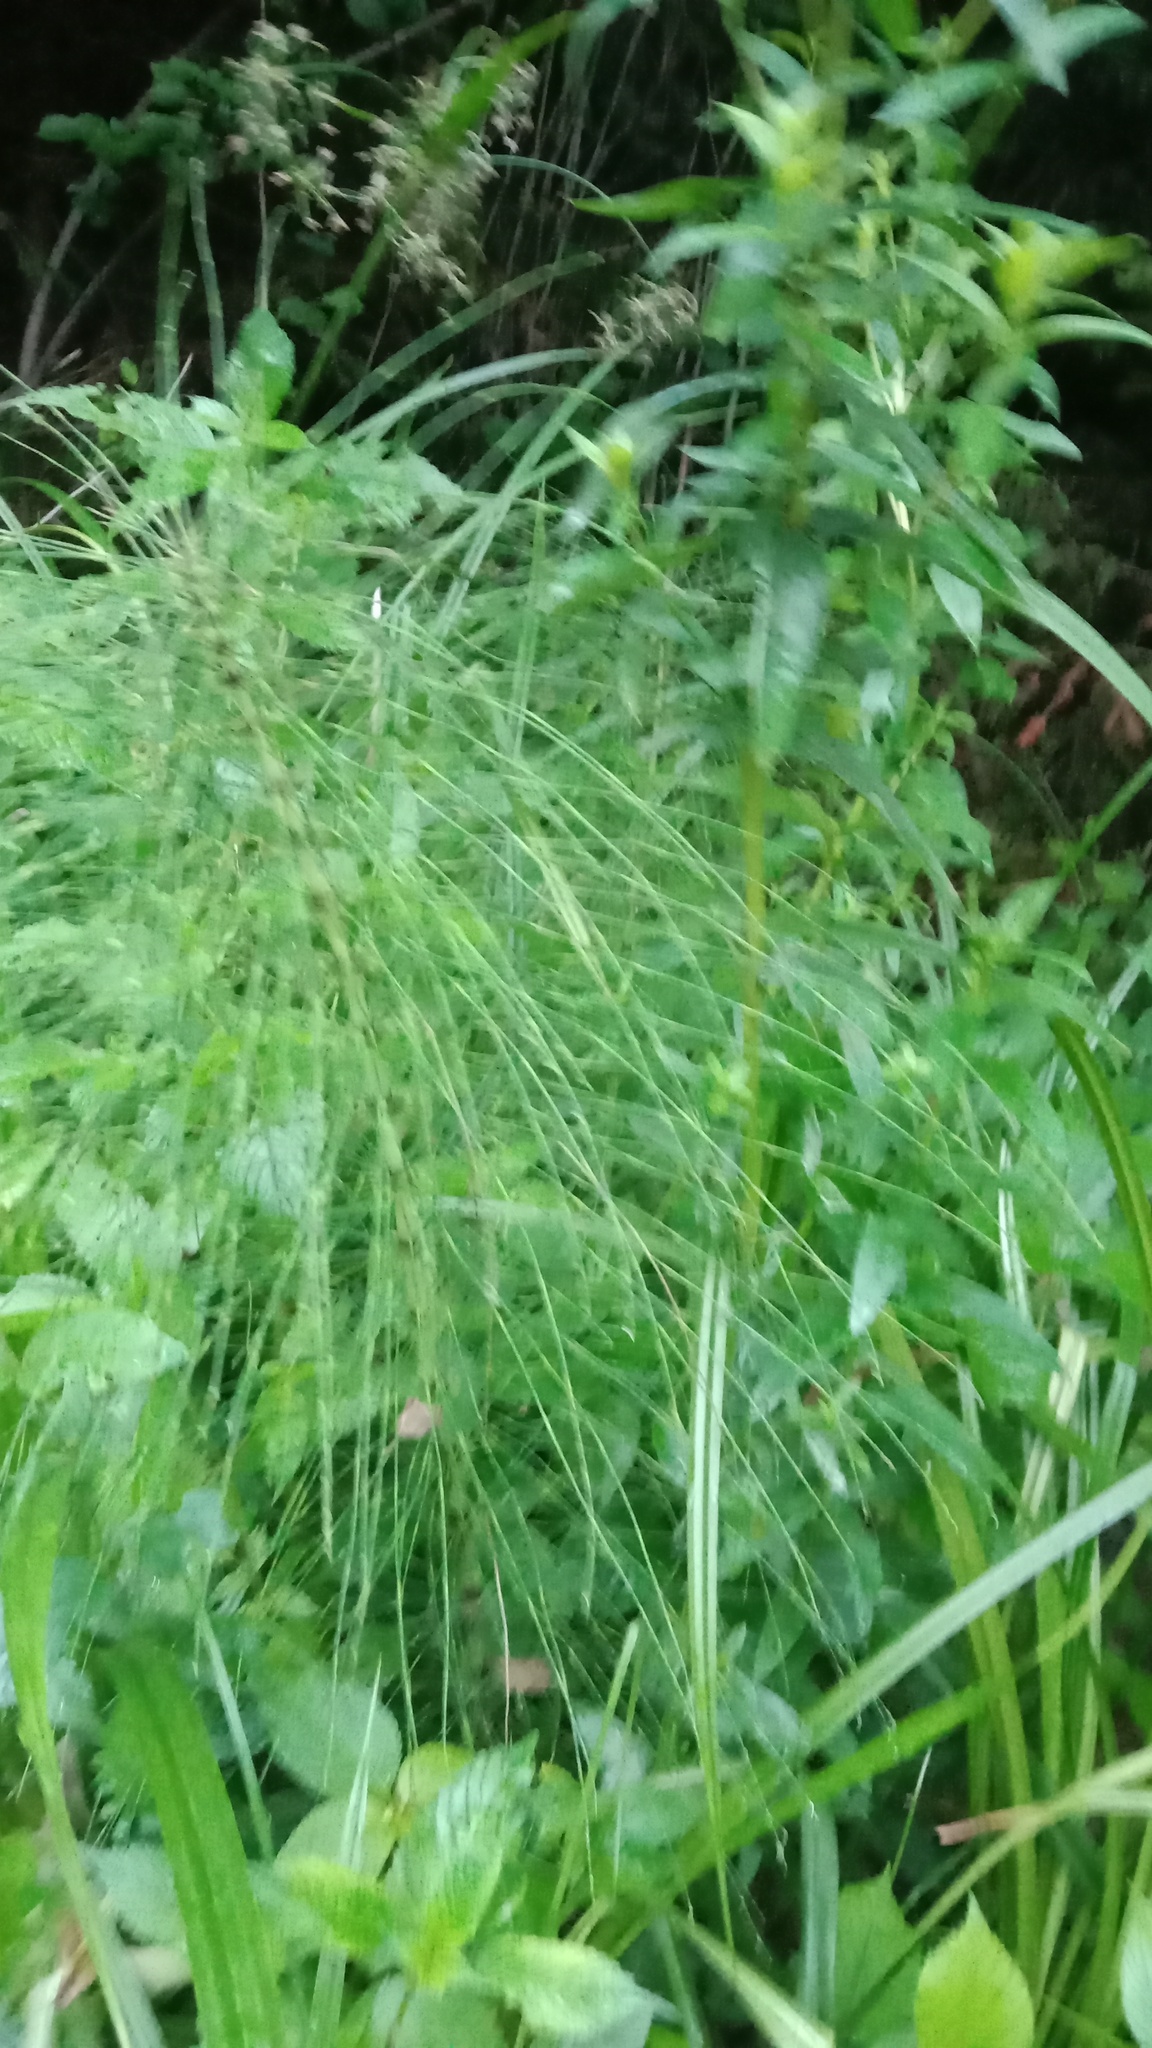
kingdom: Plantae
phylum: Tracheophyta
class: Polypodiopsida
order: Equisetales
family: Equisetaceae
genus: Equisetum
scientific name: Equisetum telmateia
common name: Great horsetail
